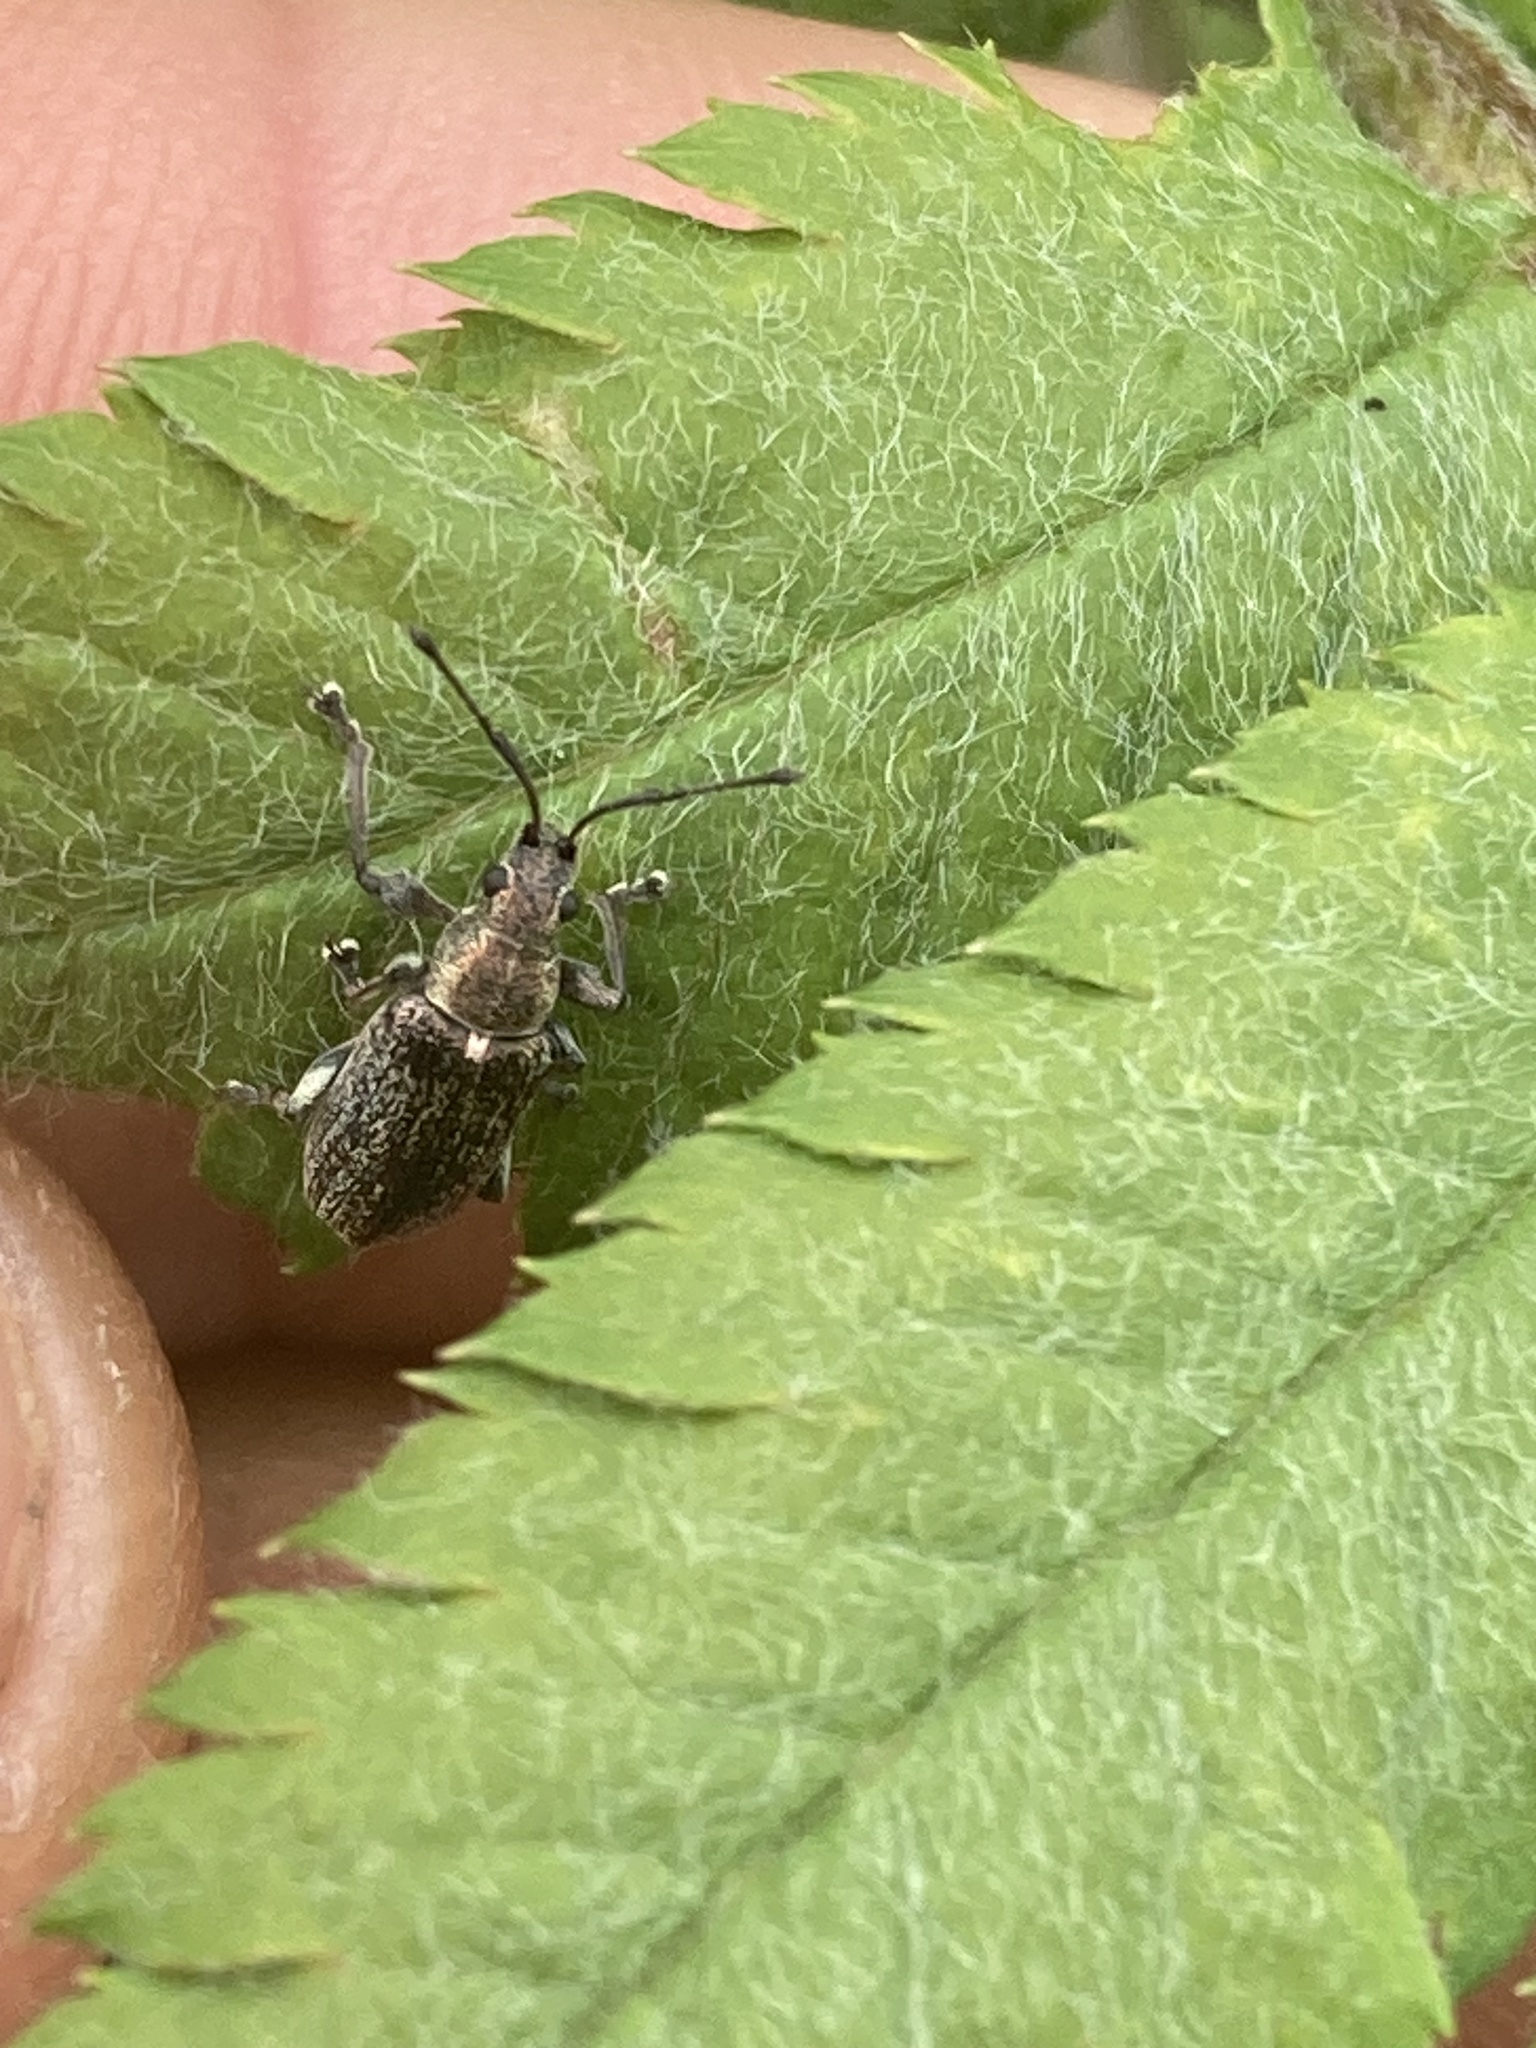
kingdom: Animalia
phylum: Arthropoda
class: Insecta
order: Coleoptera
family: Curculionidae
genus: Phyllobius
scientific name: Phyllobius pyri
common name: Common leaf weevil
